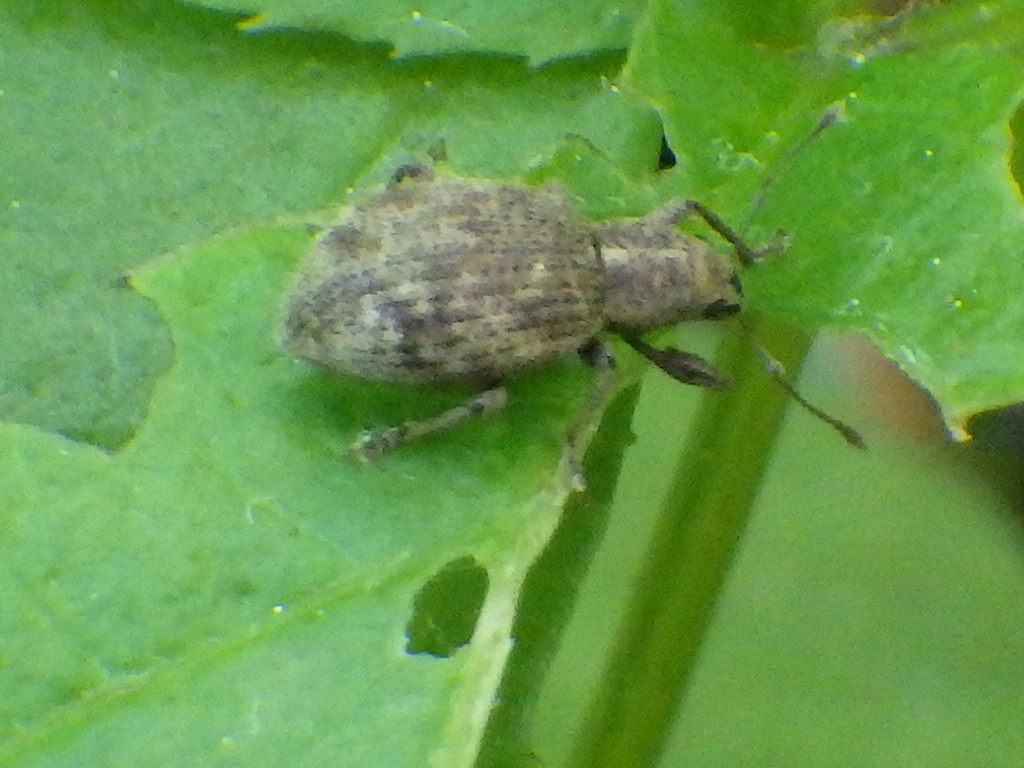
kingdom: Animalia
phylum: Arthropoda
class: Insecta
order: Coleoptera
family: Curculionidae
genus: Sciaphilus
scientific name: Sciaphilus asperatus
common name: Weevil
